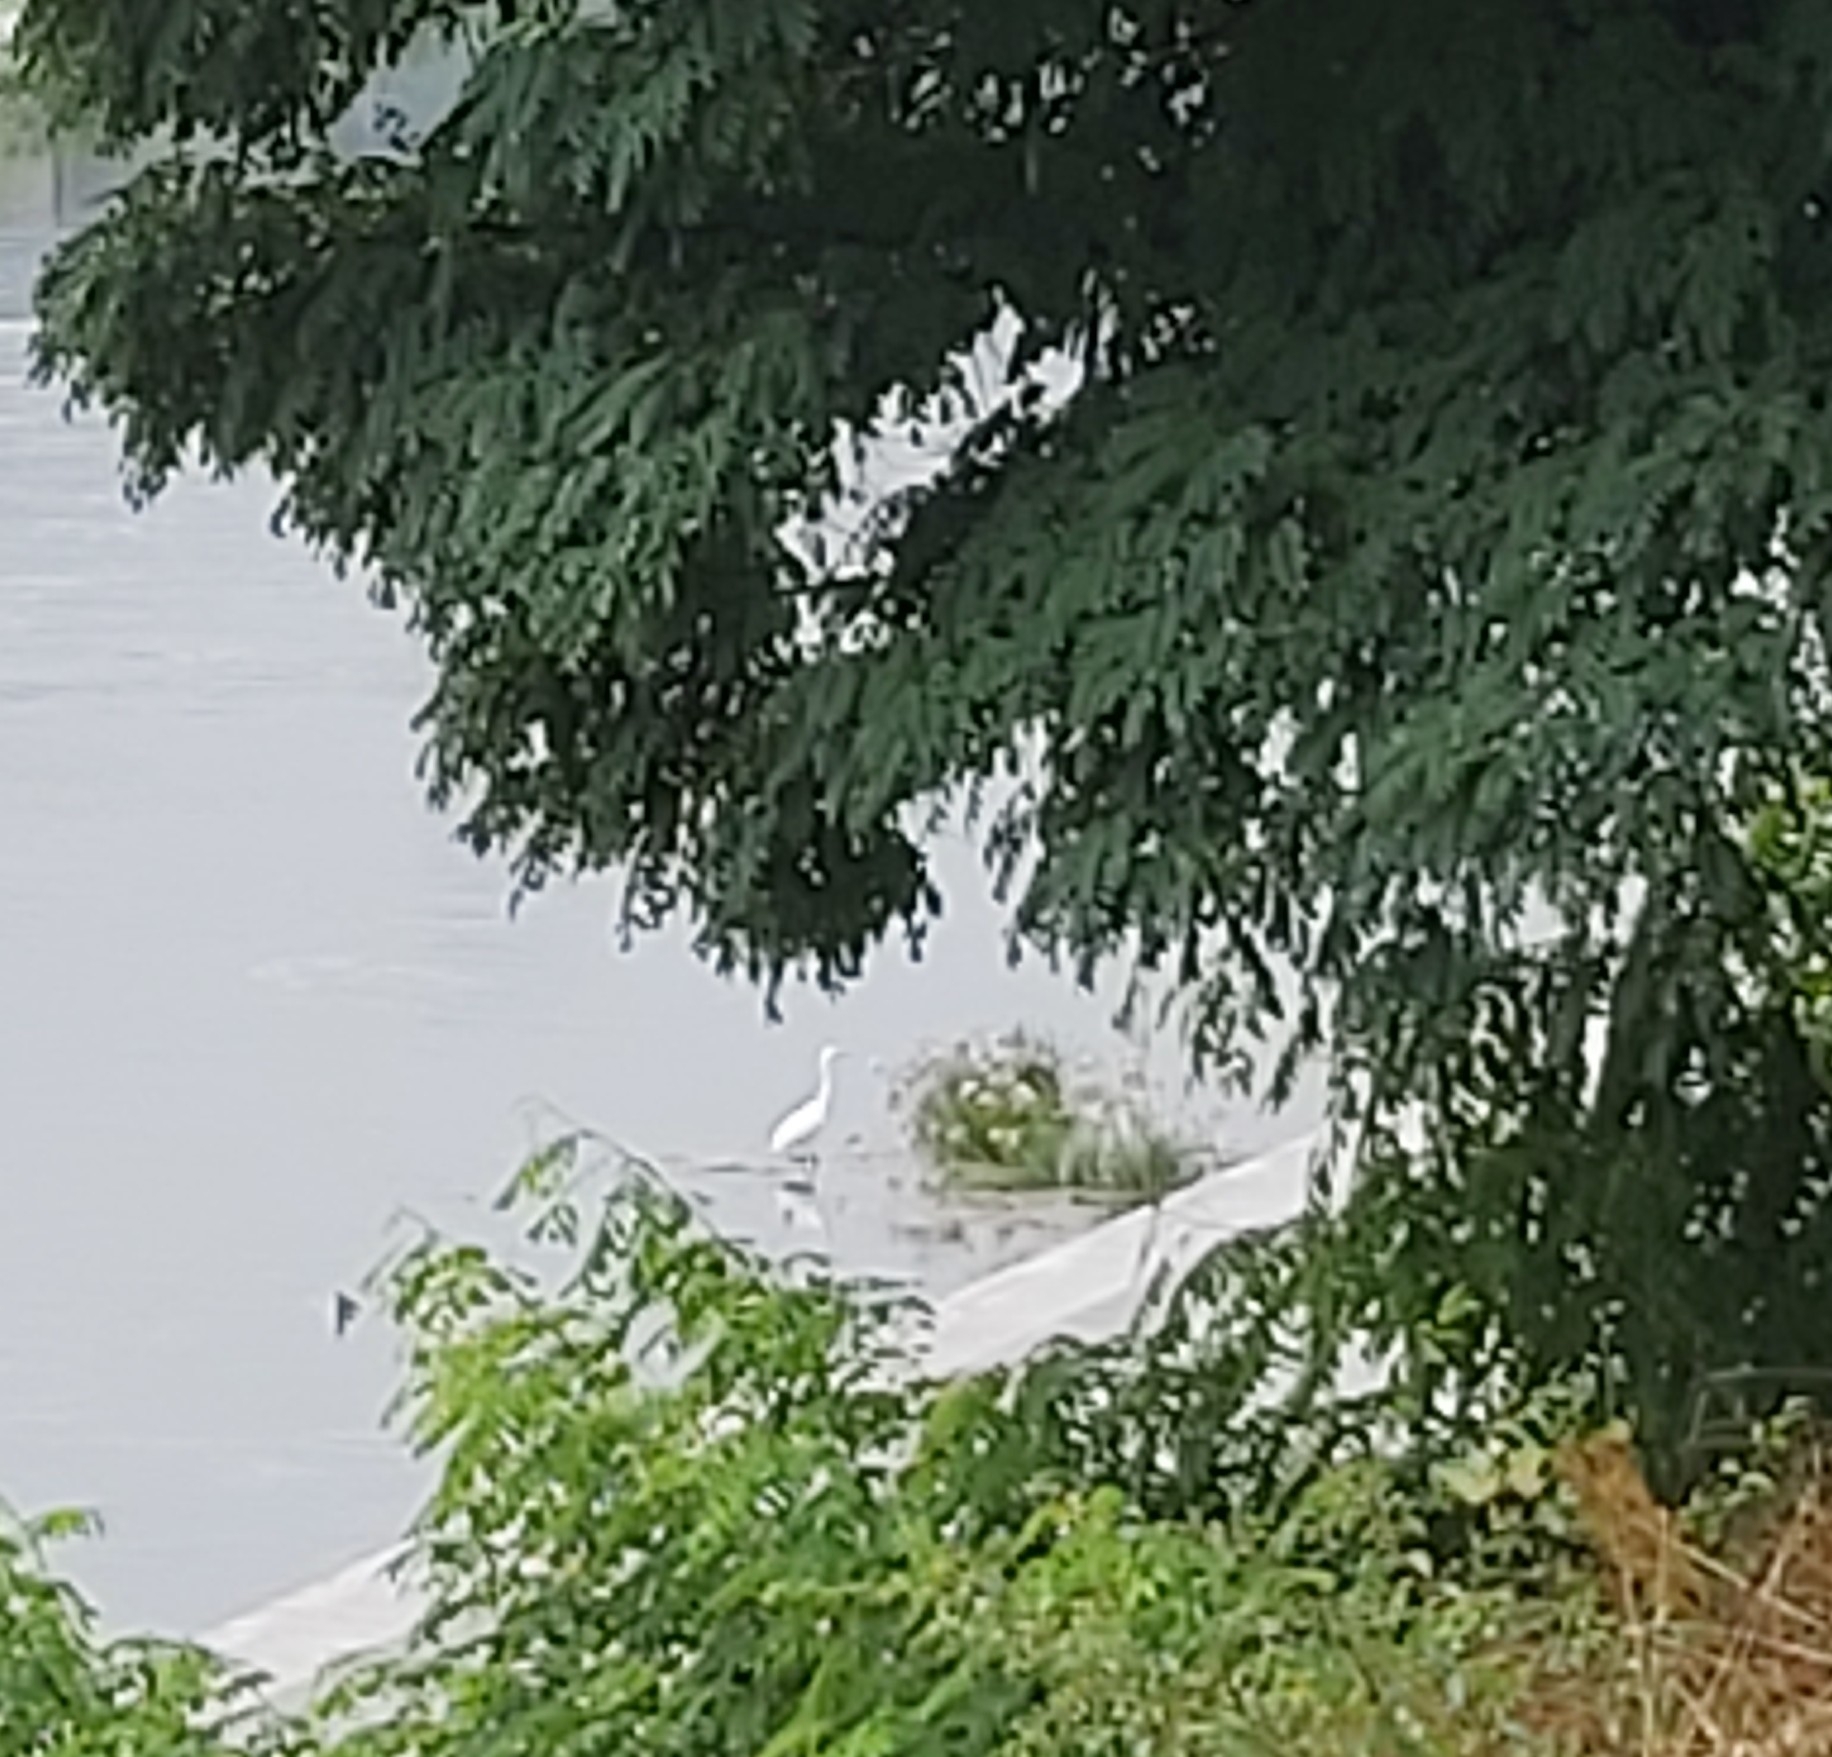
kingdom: Animalia
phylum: Chordata
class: Aves
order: Pelecaniformes
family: Ardeidae
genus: Ardea
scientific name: Ardea alba
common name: Great egret
